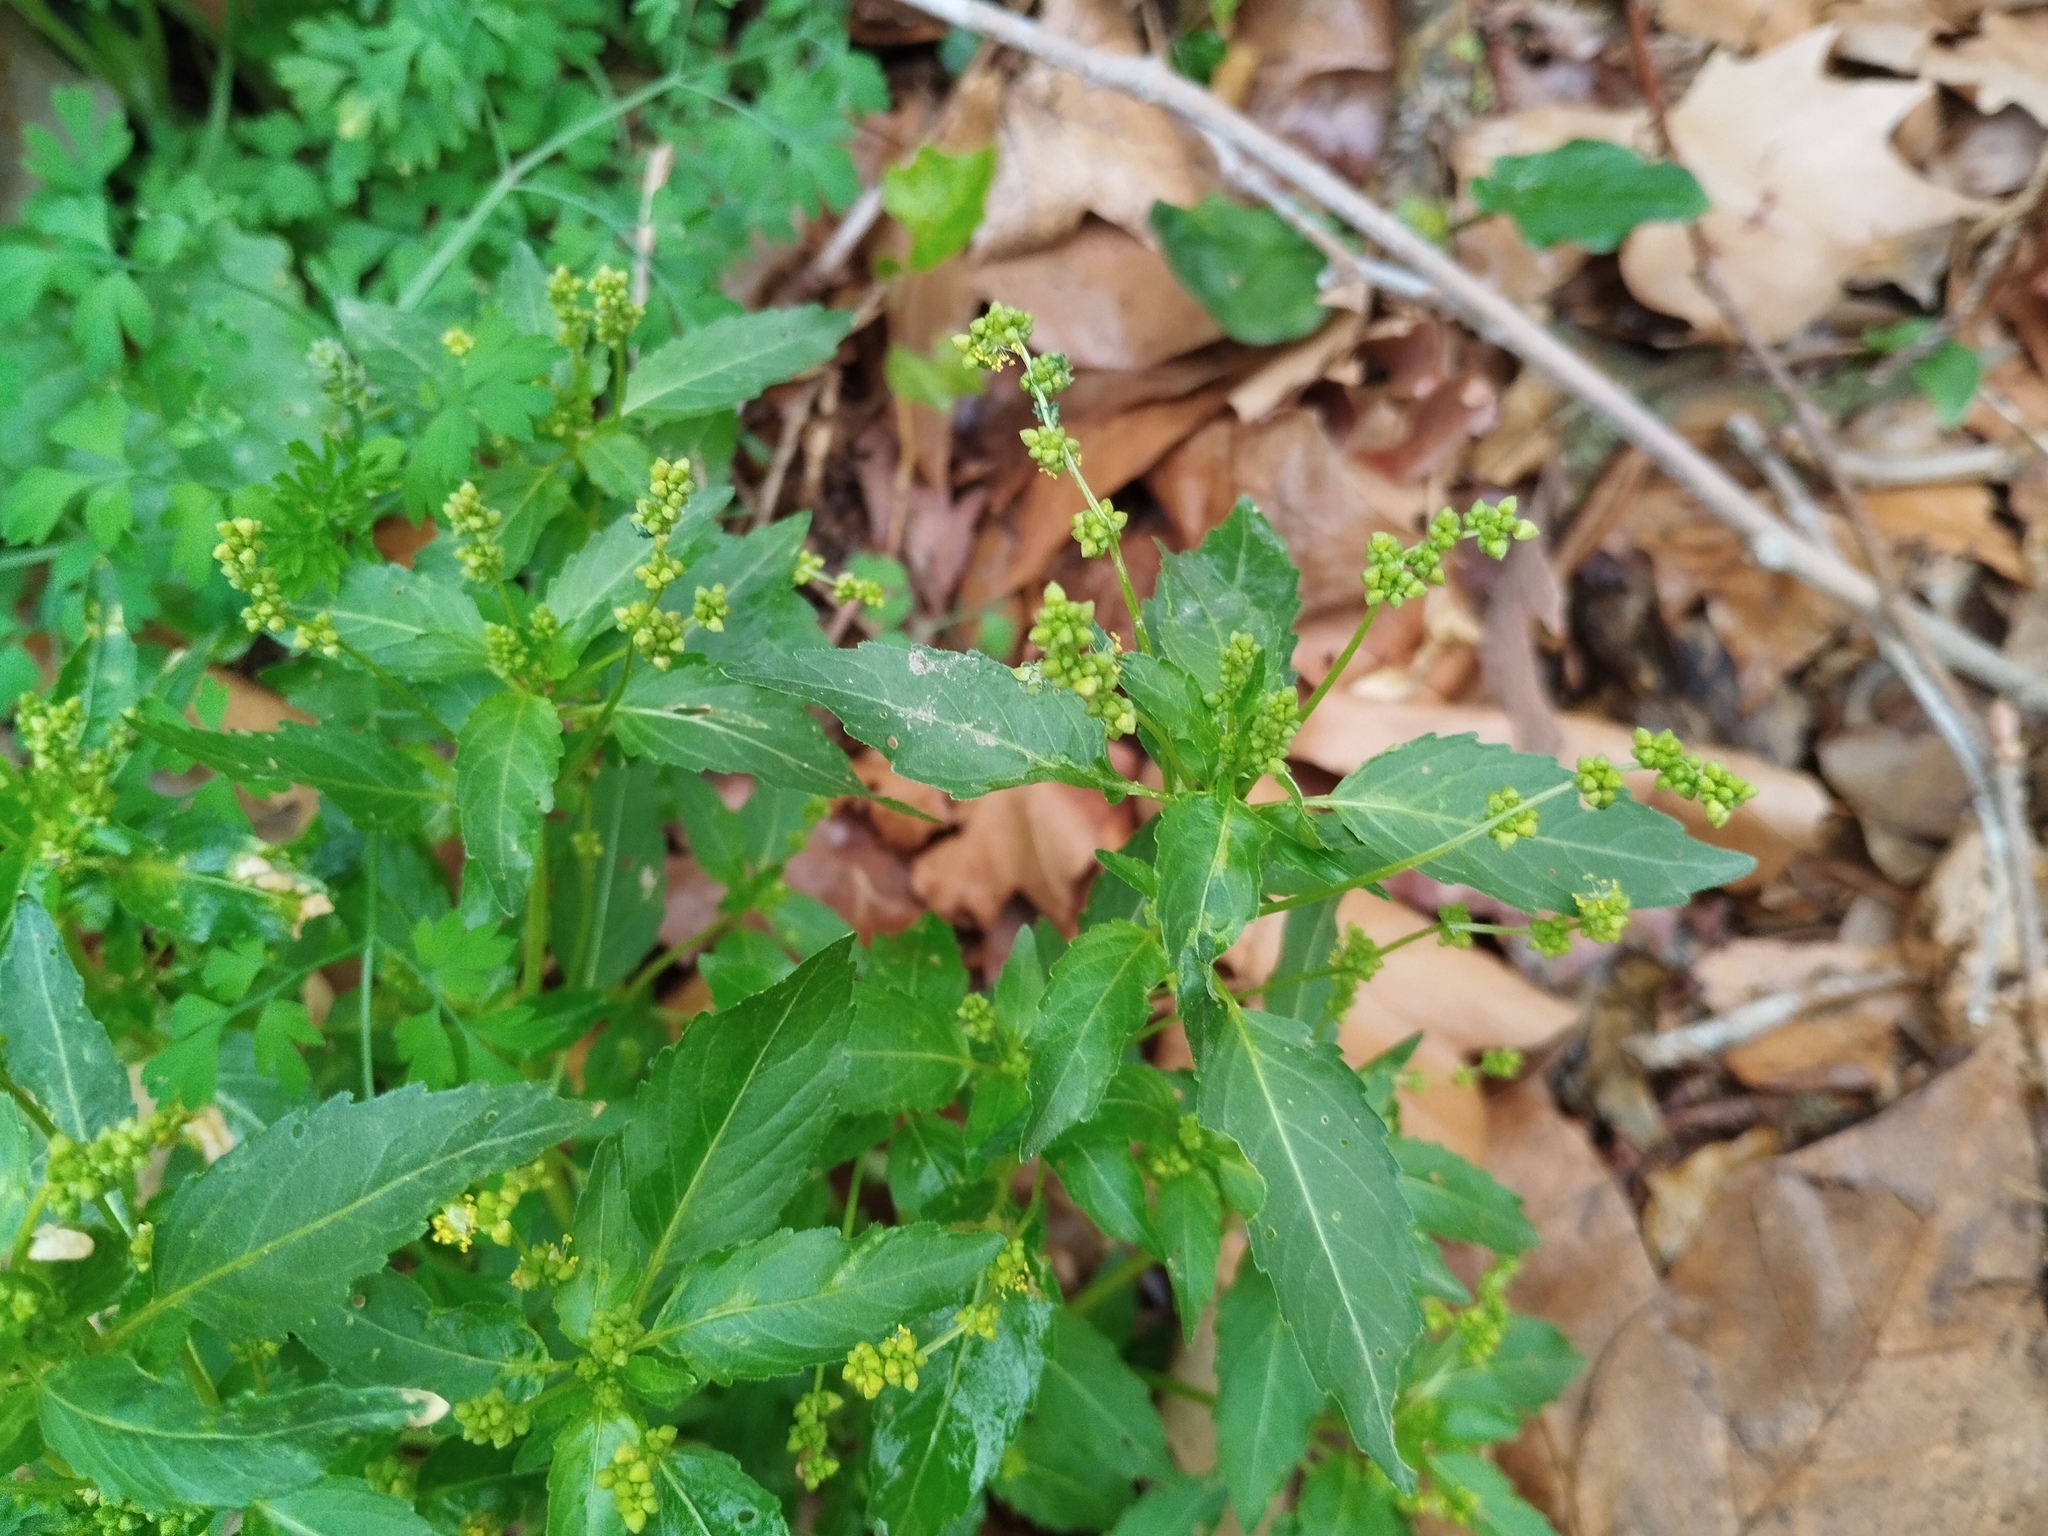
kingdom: Plantae
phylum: Tracheophyta
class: Magnoliopsida
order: Malpighiales
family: Euphorbiaceae
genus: Mercurialis
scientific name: Mercurialis annua
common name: Annual mercury
